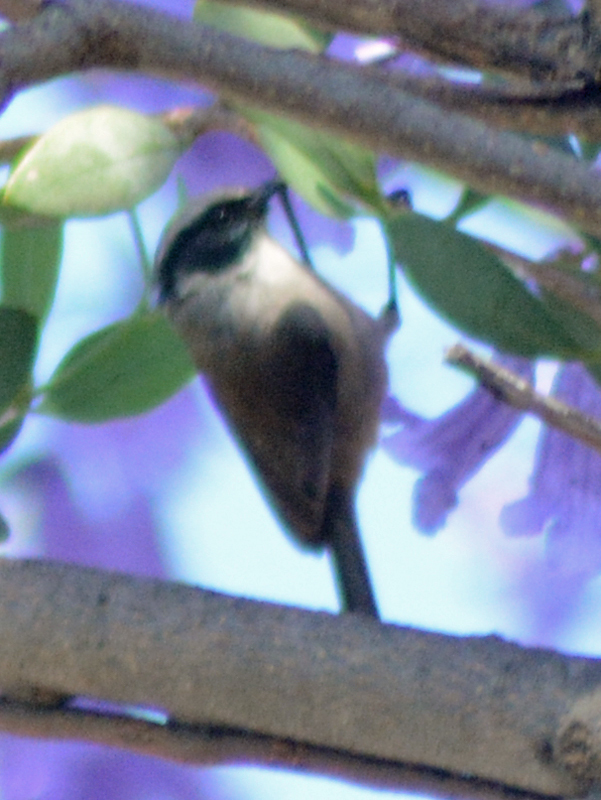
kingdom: Animalia
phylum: Chordata
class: Aves
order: Passeriformes
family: Aegithalidae
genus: Psaltriparus
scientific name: Psaltriparus minimus
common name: American bushtit
